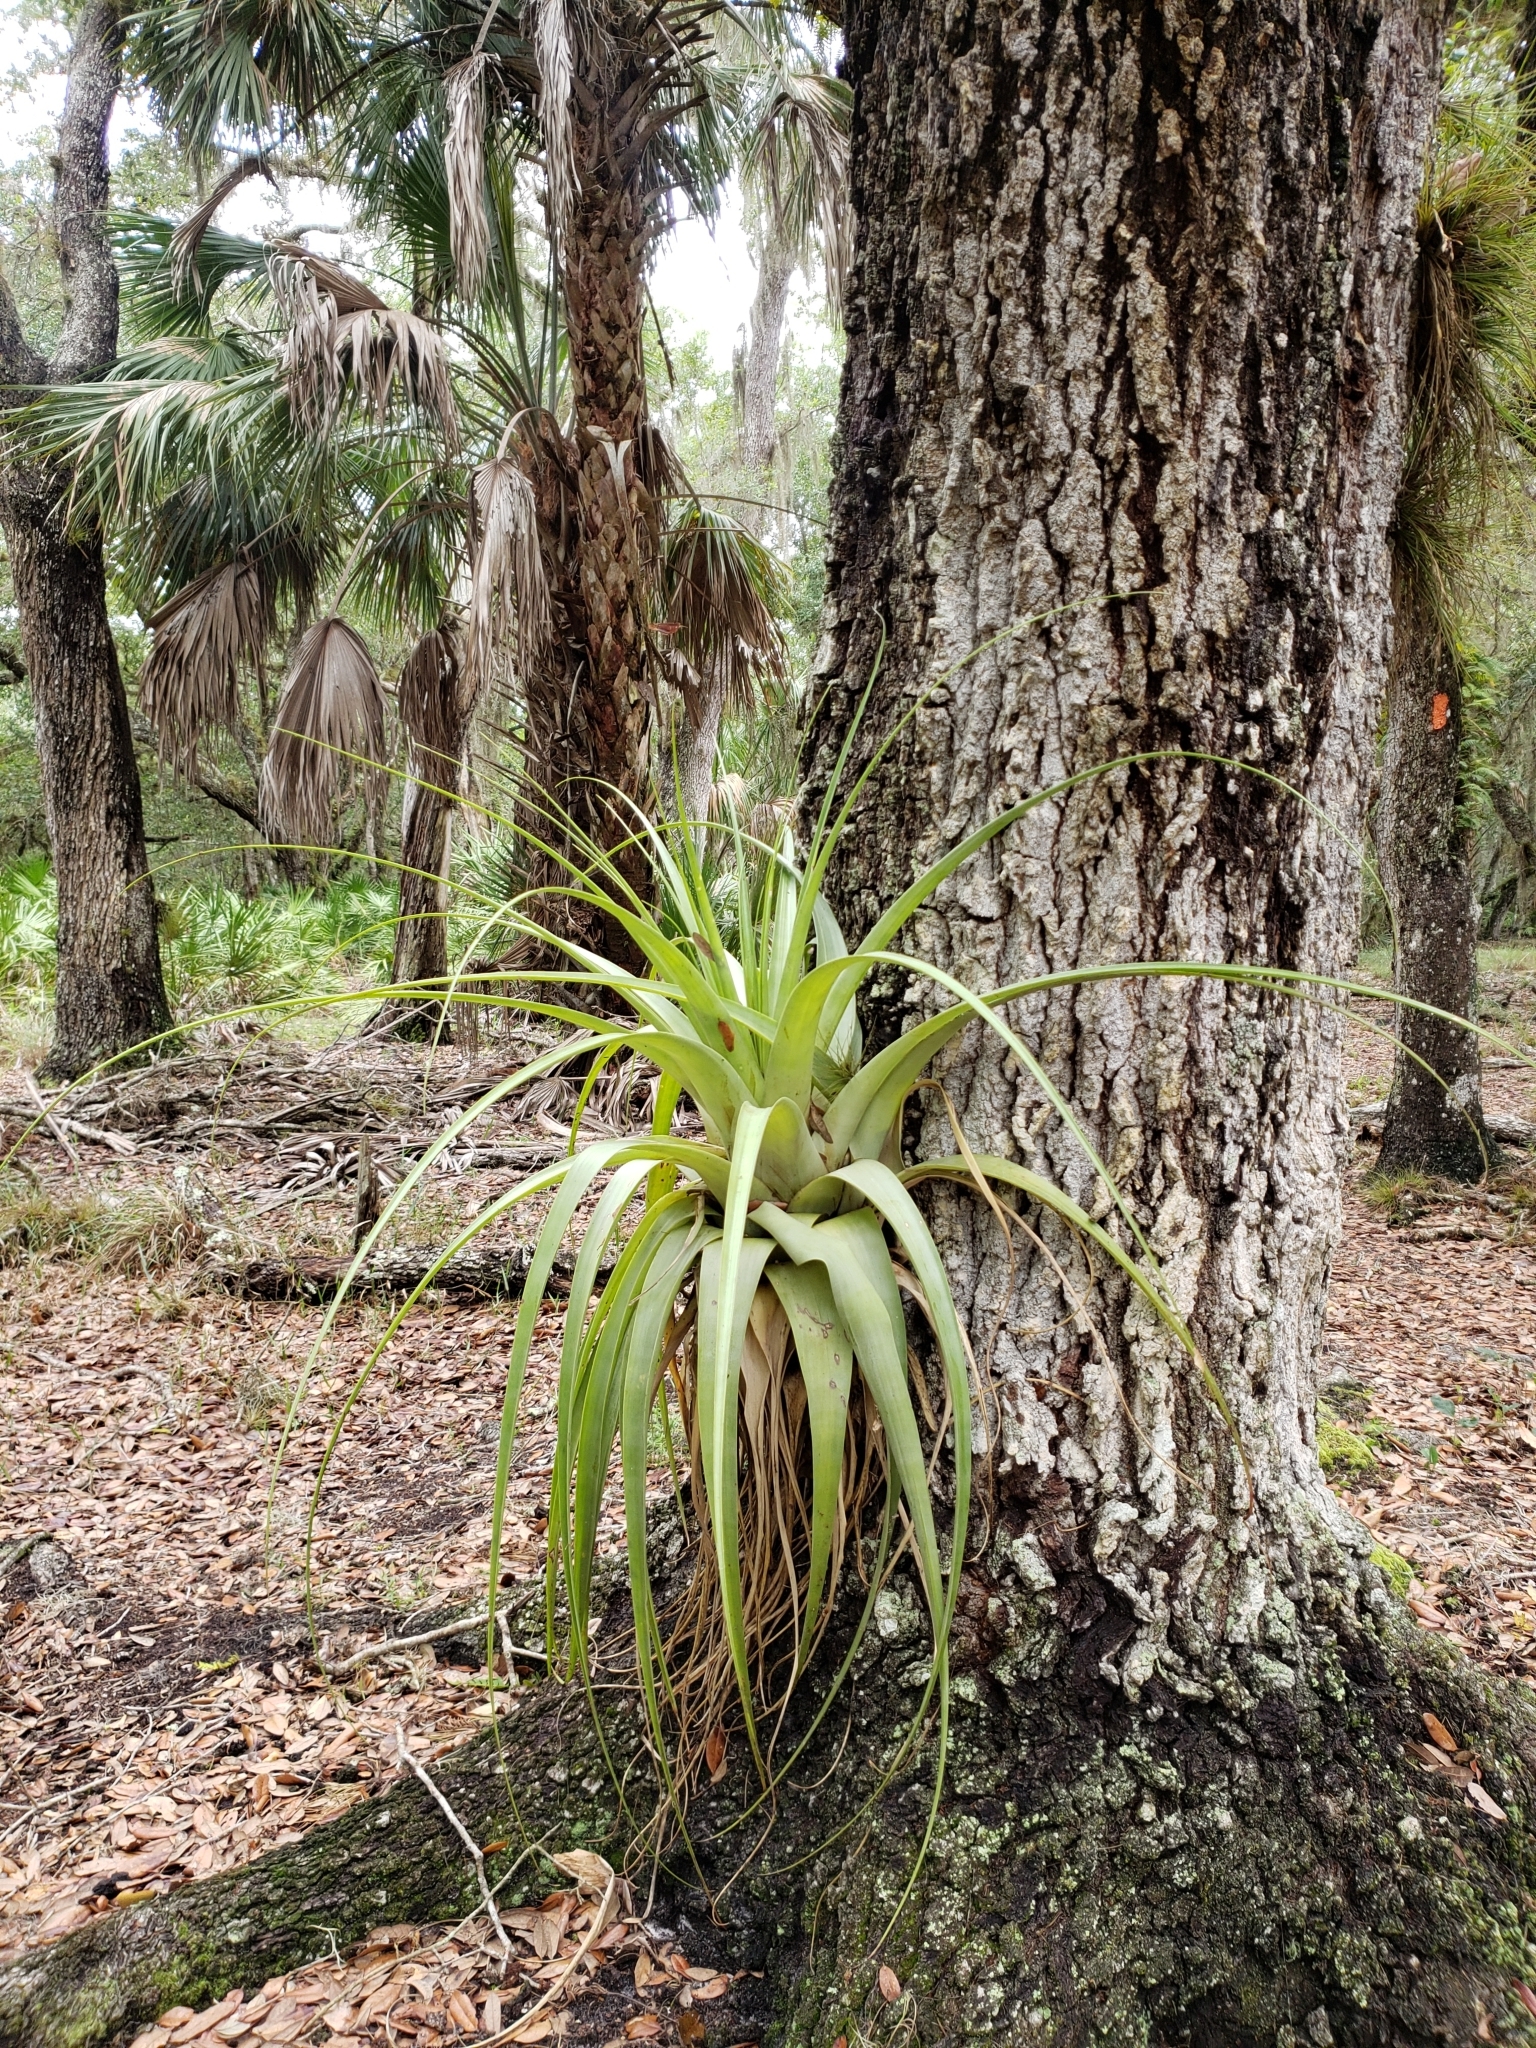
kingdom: Plantae
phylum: Tracheophyta
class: Liliopsida
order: Poales
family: Bromeliaceae
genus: Tillandsia
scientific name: Tillandsia utriculata
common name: Wild pine
